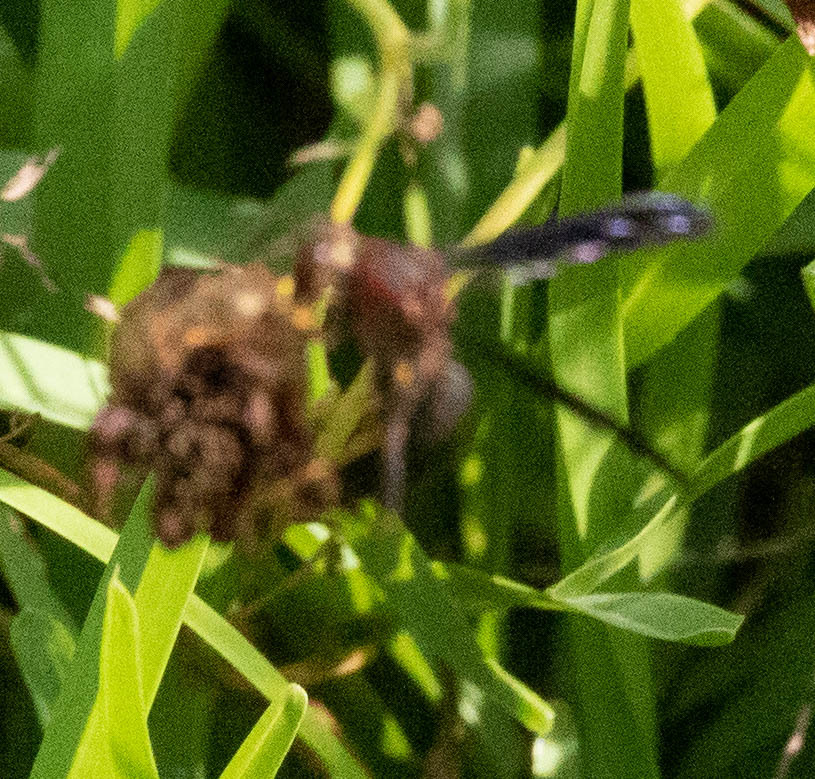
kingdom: Animalia
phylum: Arthropoda
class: Insecta
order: Hymenoptera
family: Eumenidae
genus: Polistes
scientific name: Polistes metricus
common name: Metric paper wasp
